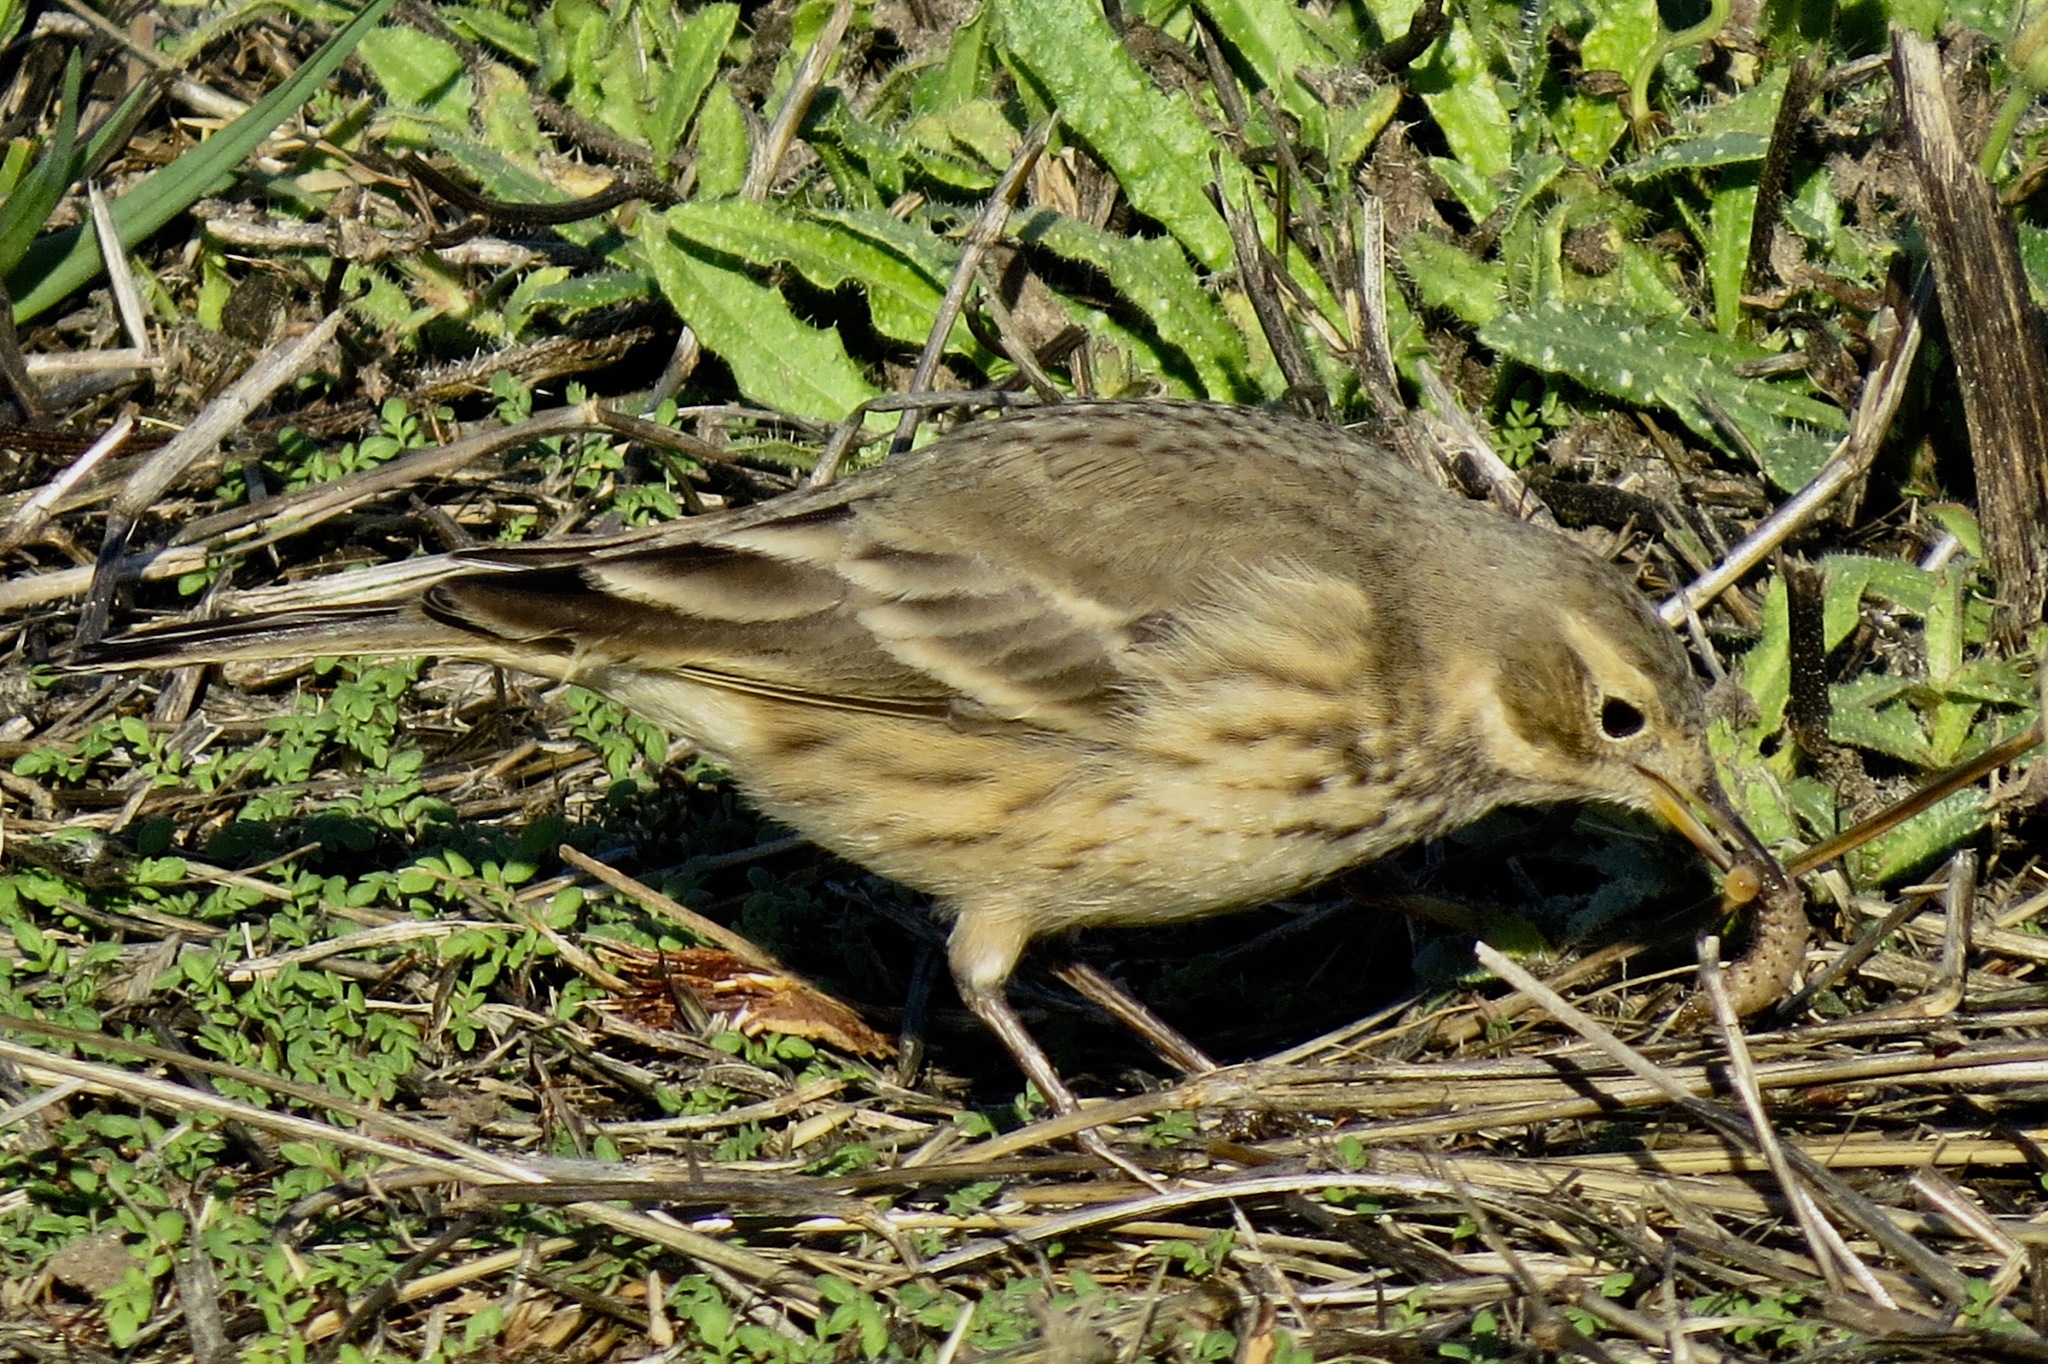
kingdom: Animalia
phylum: Chordata
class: Aves
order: Passeriformes
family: Motacillidae
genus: Anthus
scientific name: Anthus rubescens
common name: Buff-bellied pipit
